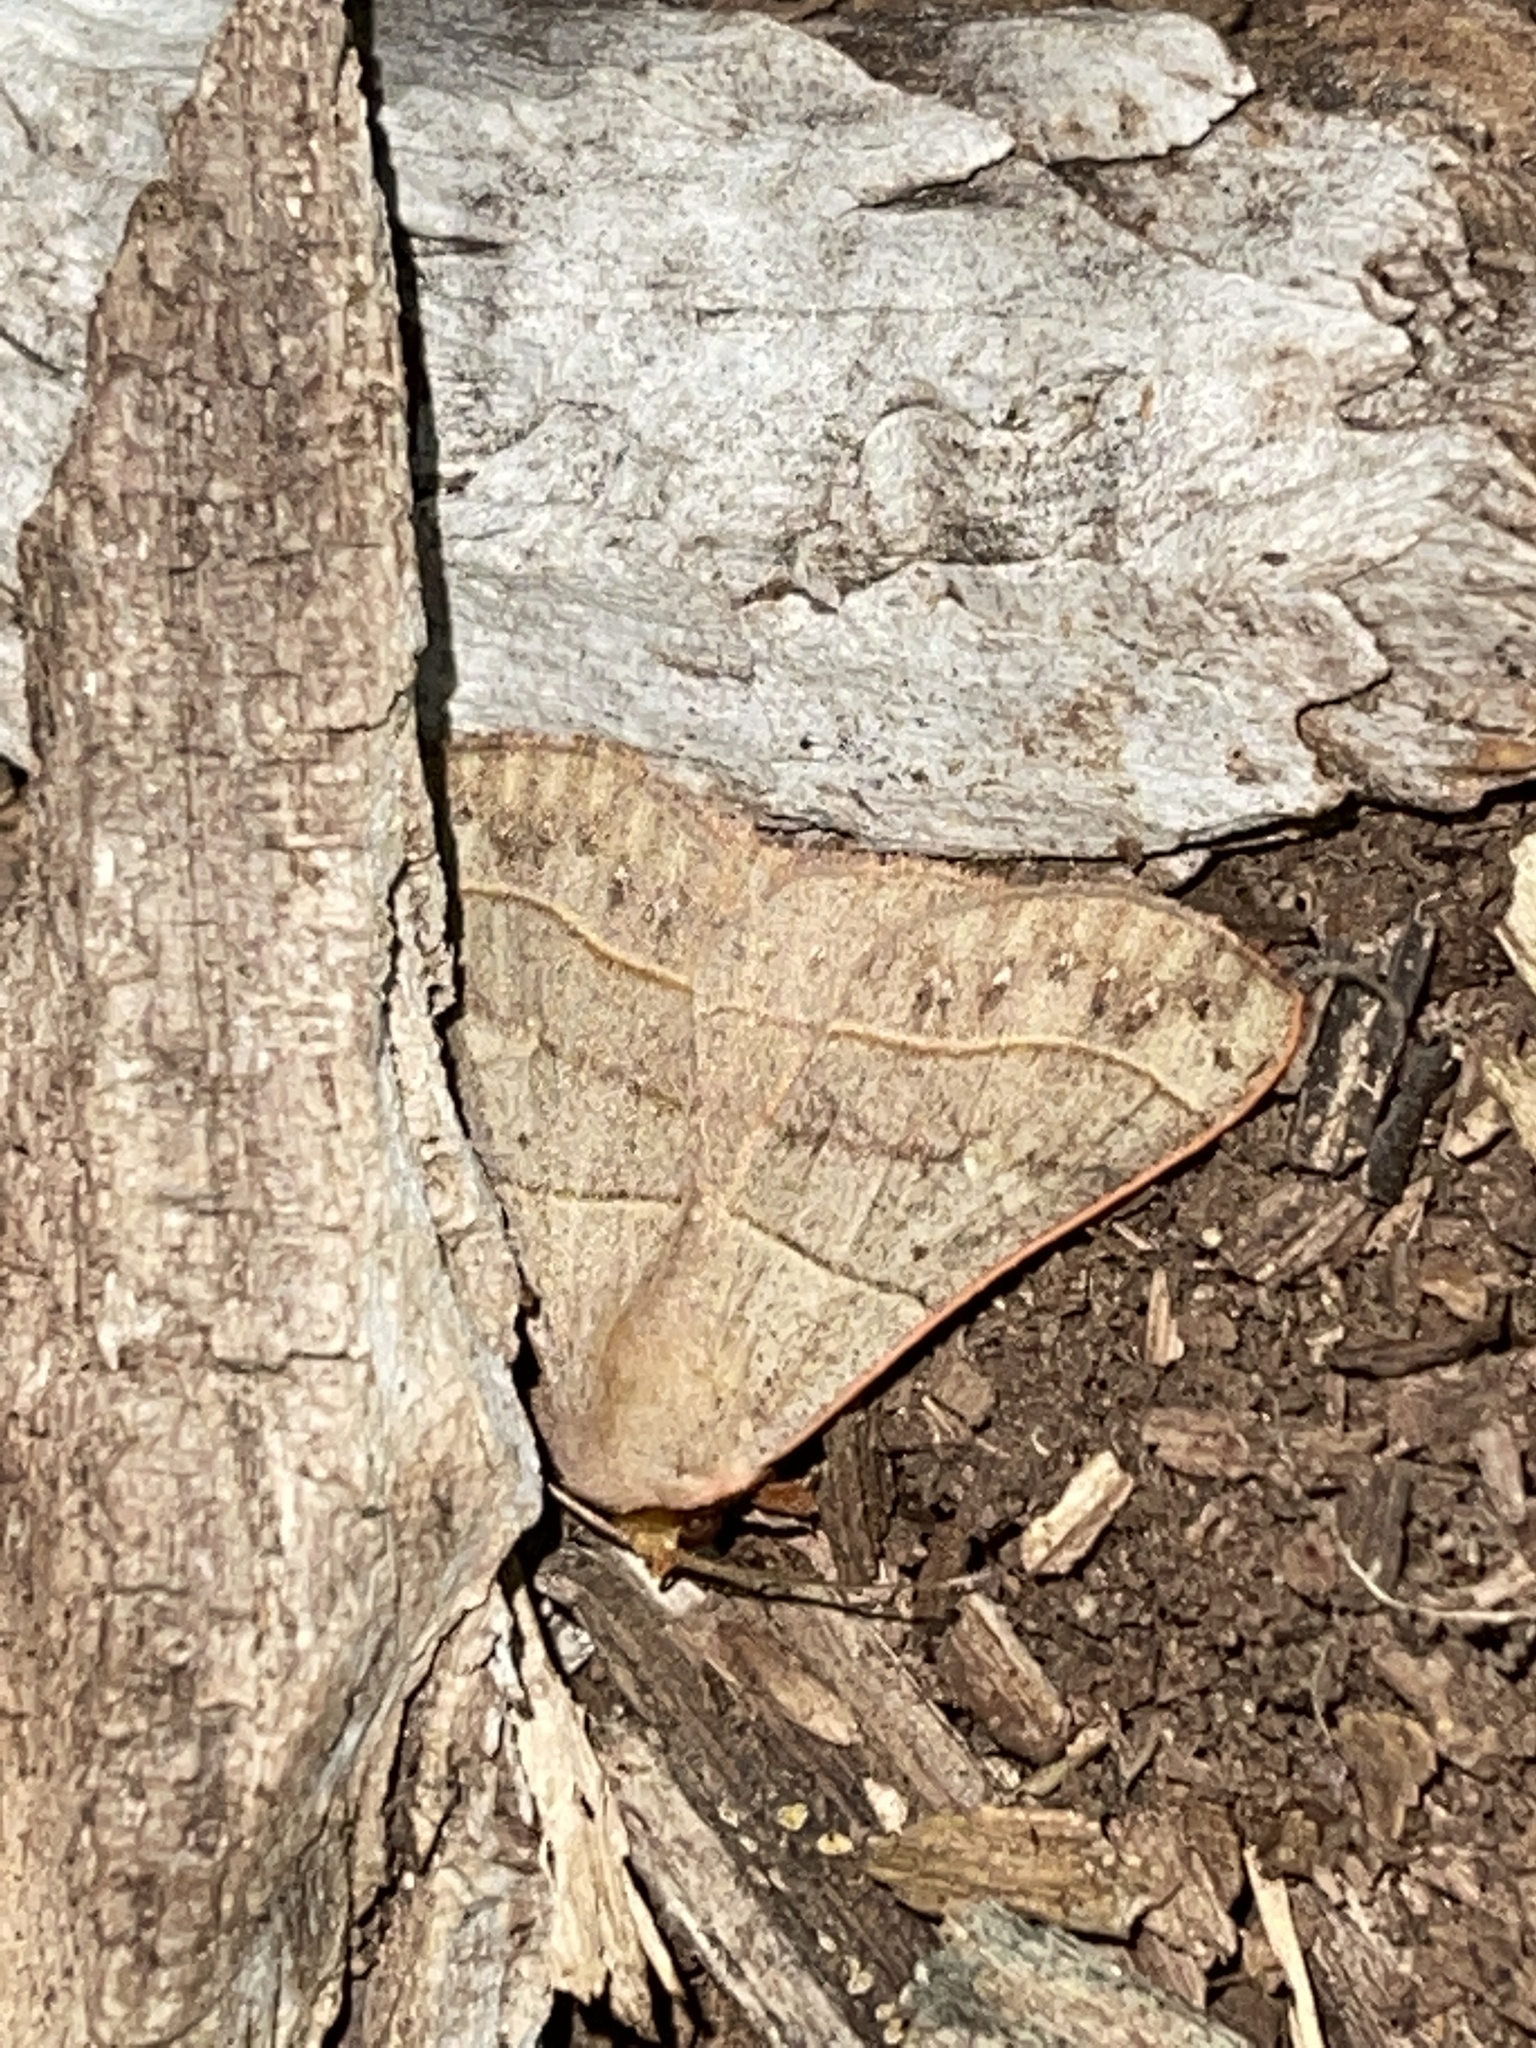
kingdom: Animalia
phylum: Arthropoda
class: Insecta
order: Lepidoptera
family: Erebidae
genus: Panopoda
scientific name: Panopoda rufimargo
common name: Red-lined panopoda moth
